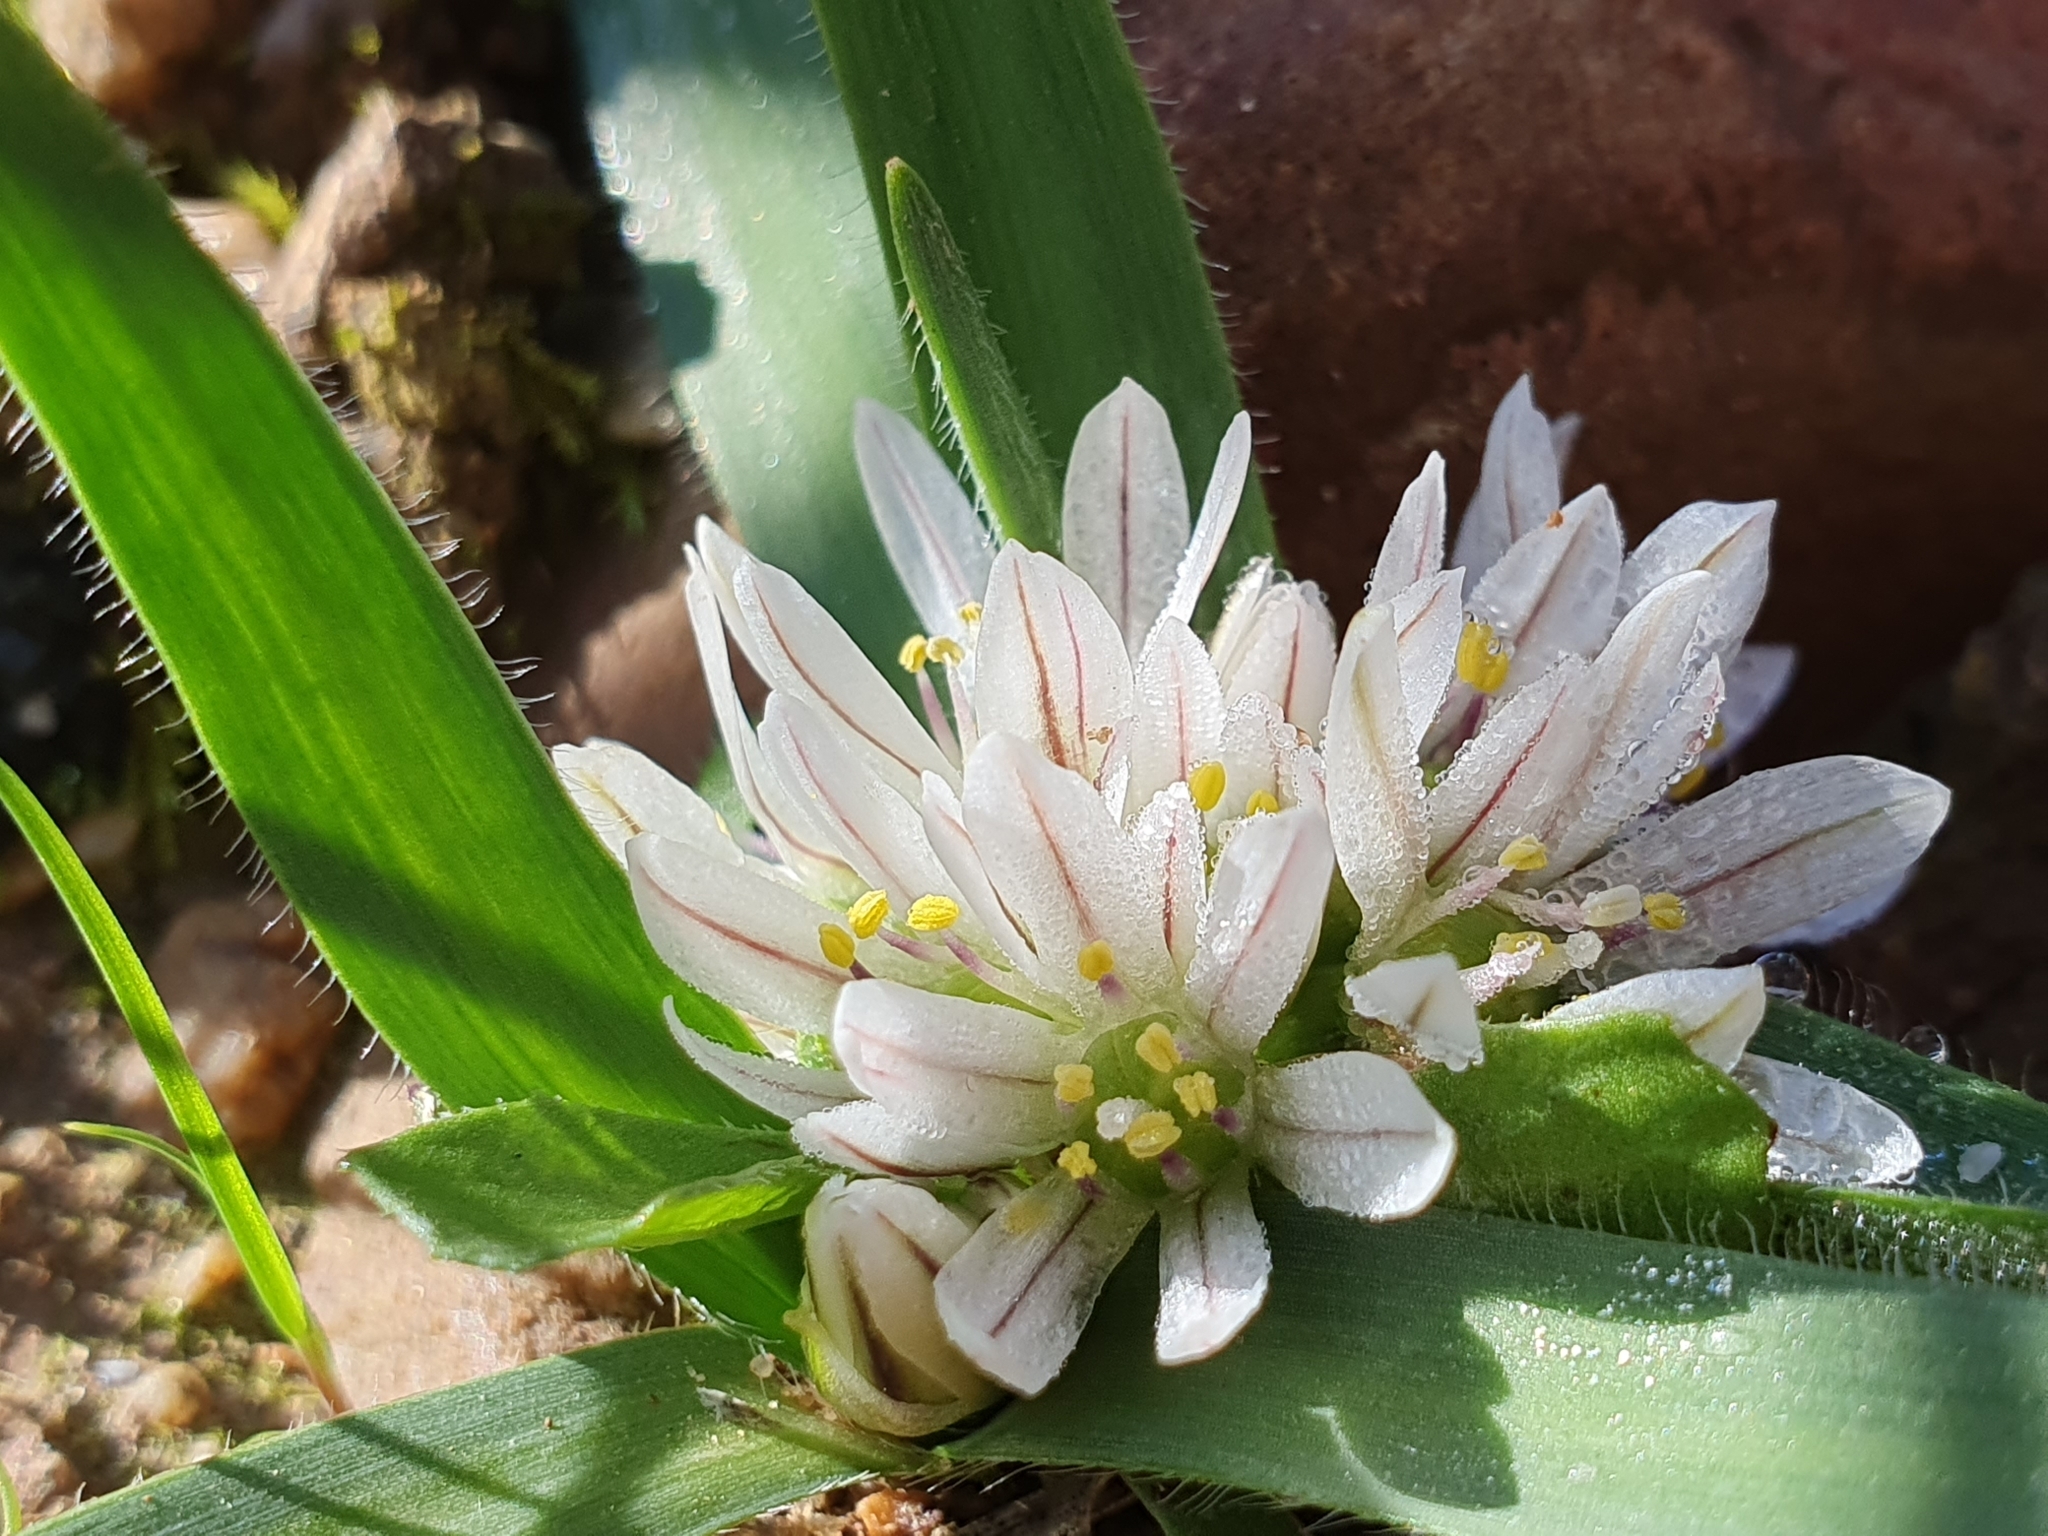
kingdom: Plantae
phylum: Tracheophyta
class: Liliopsida
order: Asparagales
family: Amaryllidaceae
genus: Allium
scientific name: Allium chamaemoly
